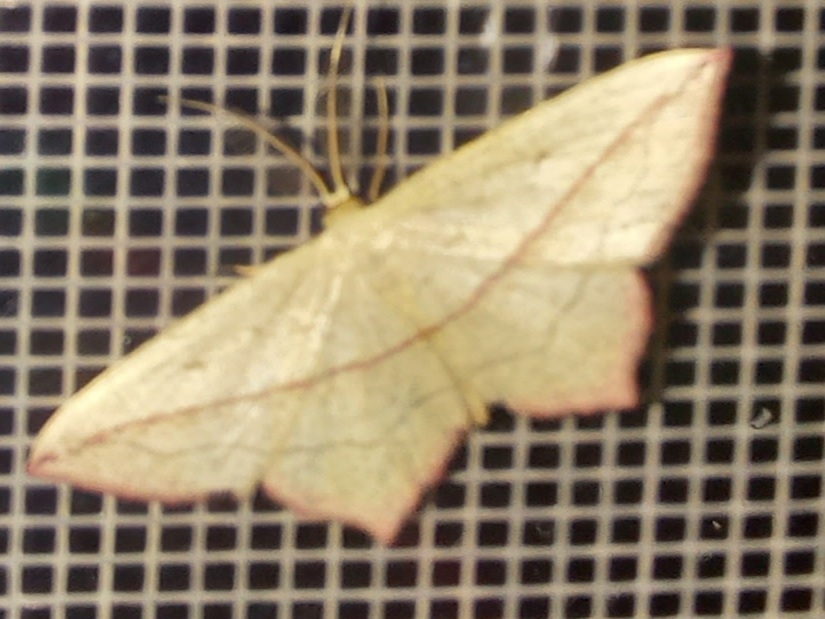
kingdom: Animalia
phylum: Arthropoda
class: Insecta
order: Lepidoptera
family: Geometridae
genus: Timandra
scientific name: Timandra comae
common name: Blood-vein
